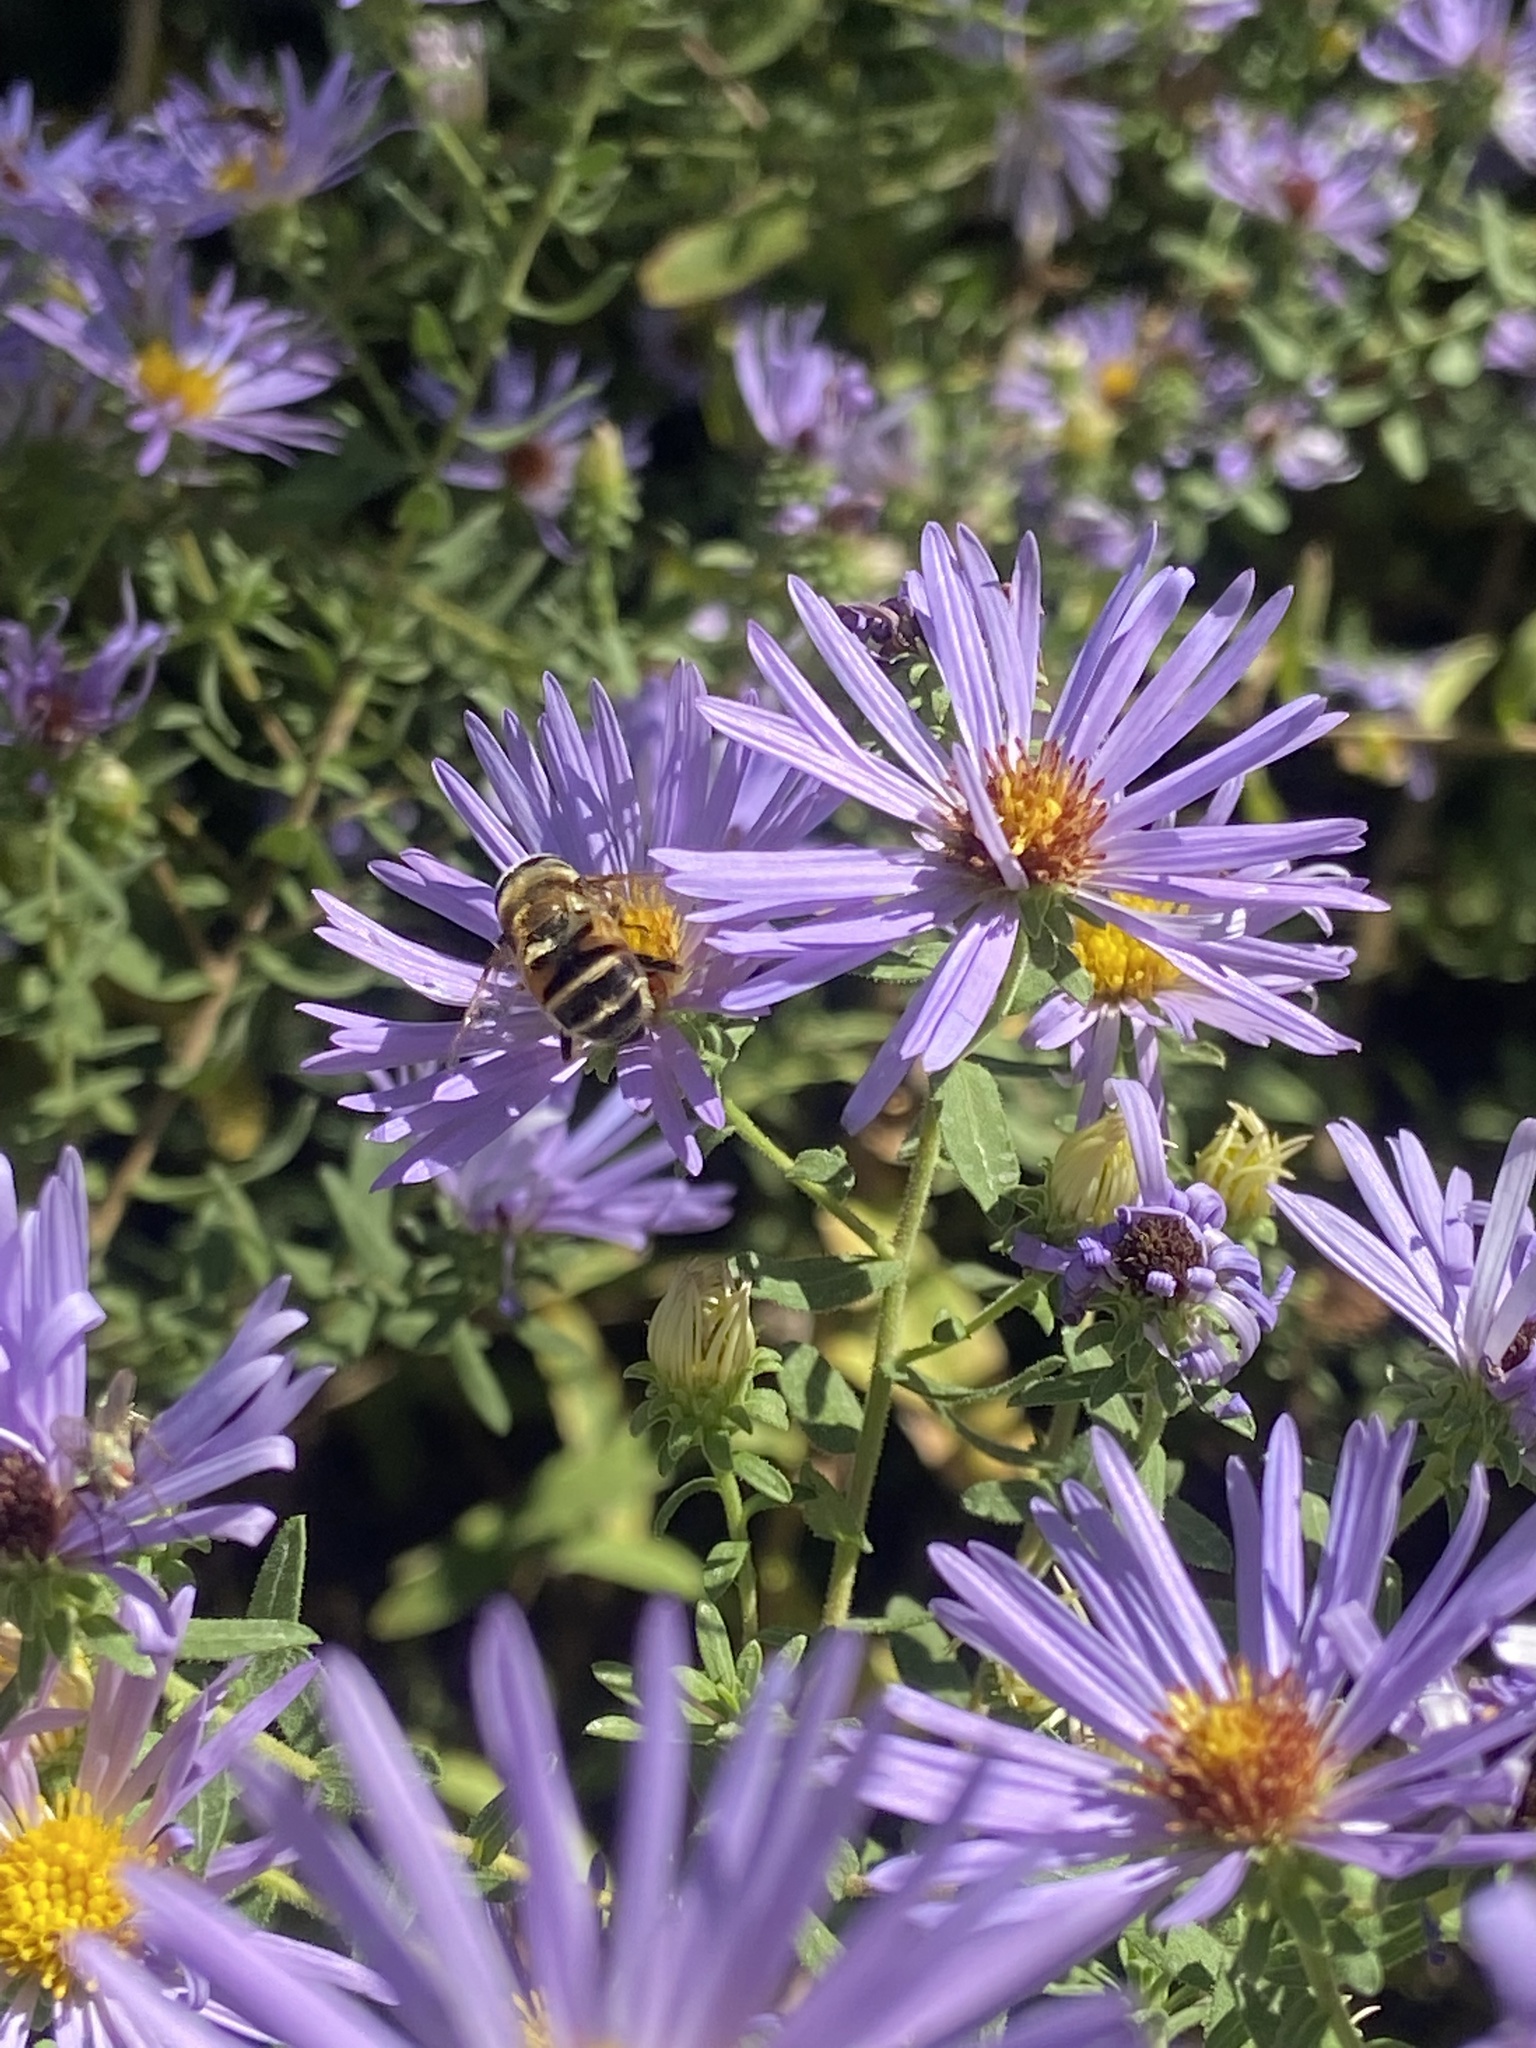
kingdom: Animalia
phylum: Arthropoda
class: Insecta
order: Diptera
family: Syrphidae
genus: Eristalis
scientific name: Eristalis stipator
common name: Yellow-shouldered drone fly
